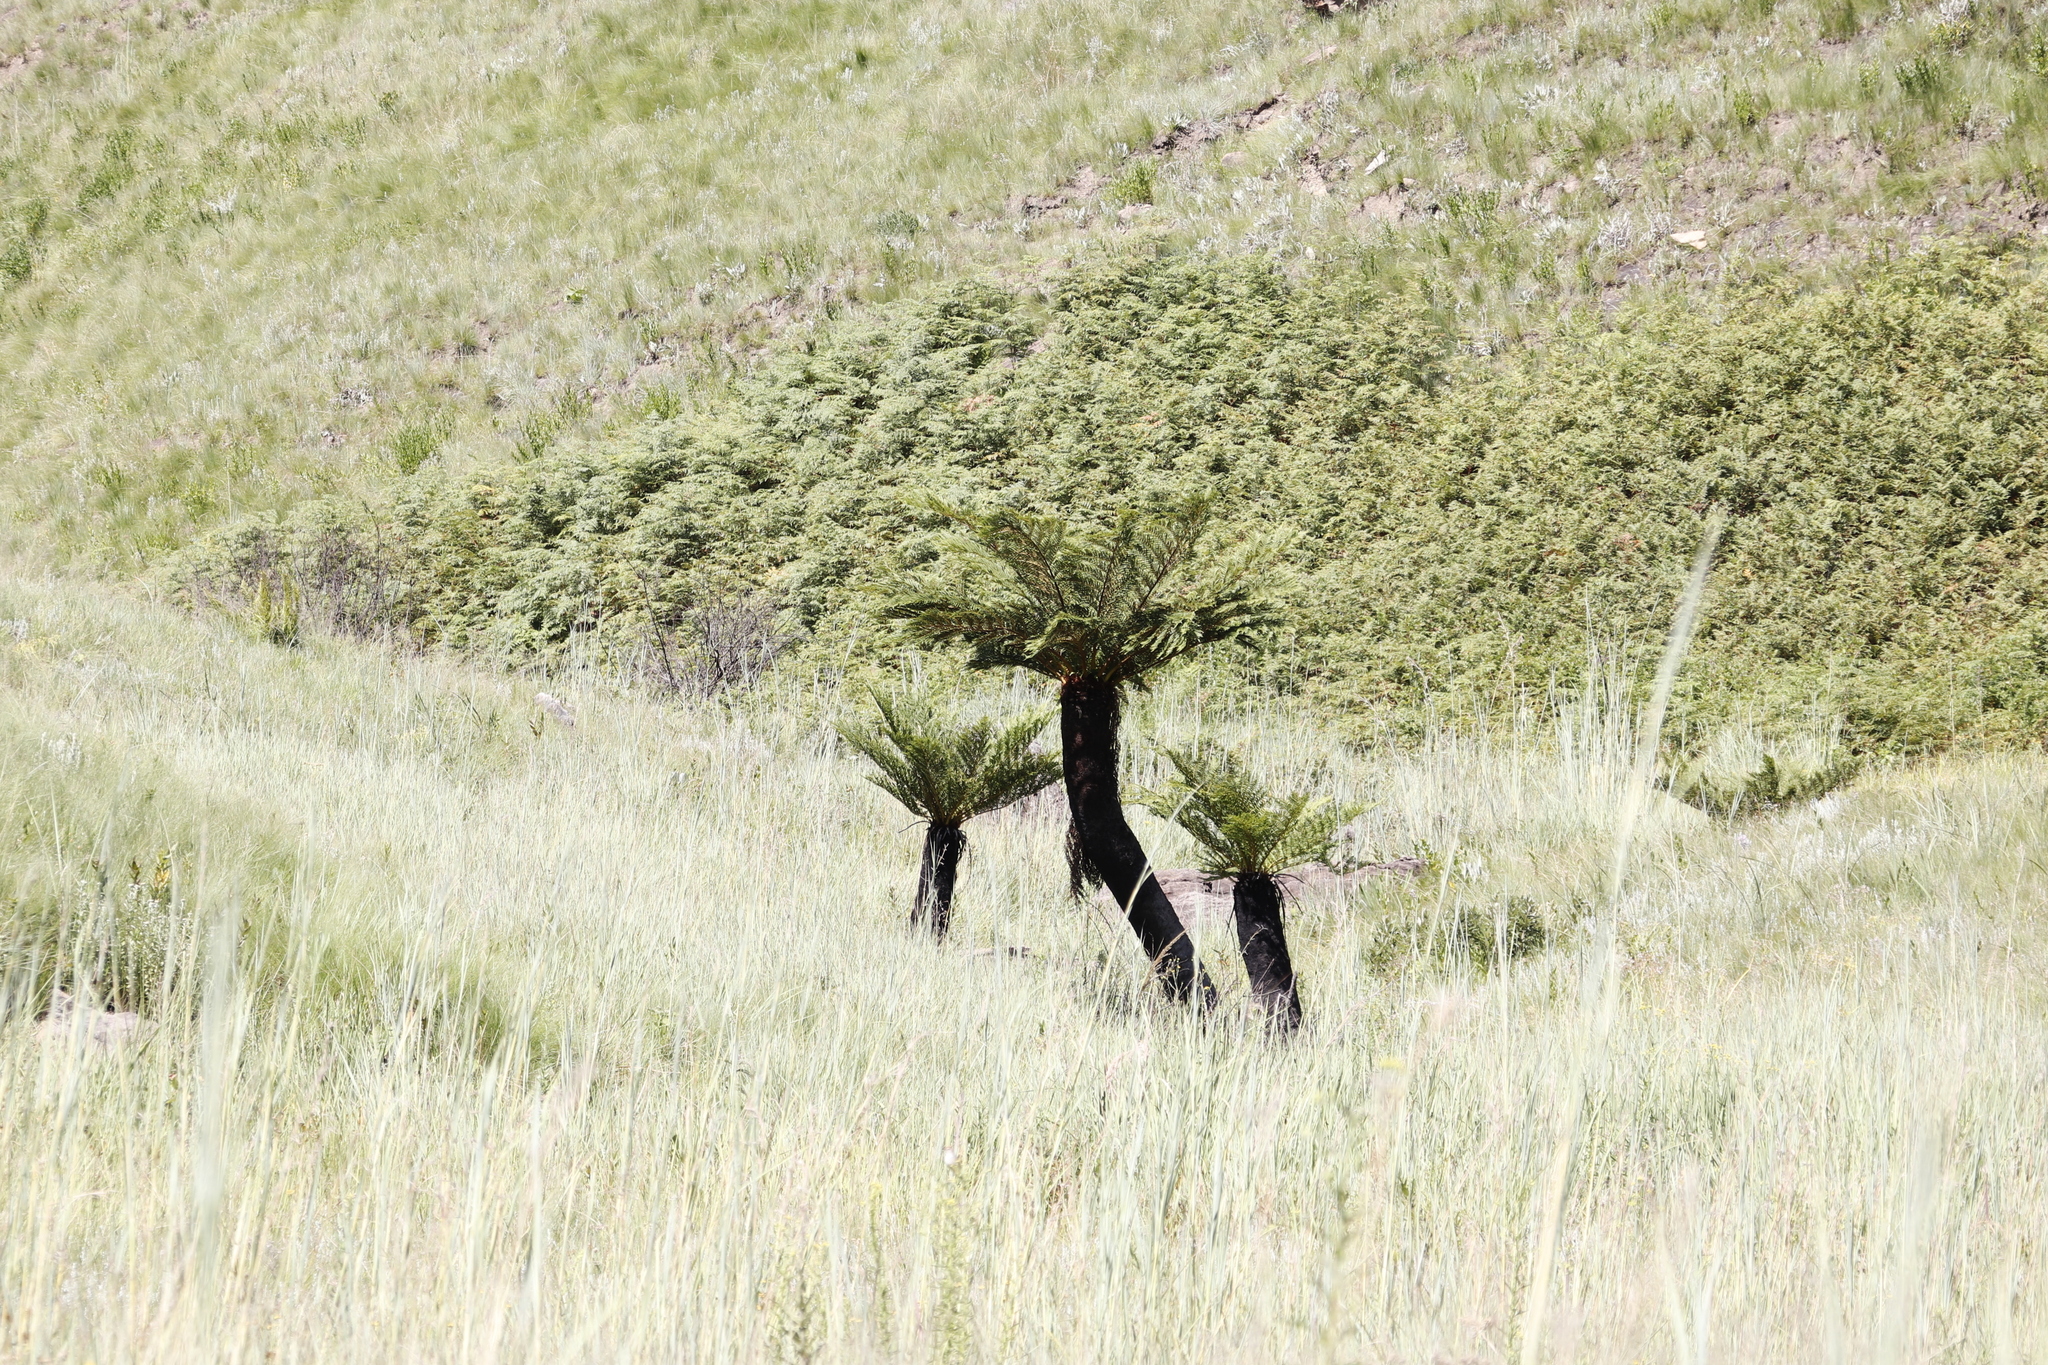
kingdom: Plantae
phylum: Tracheophyta
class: Polypodiopsida
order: Cyatheales
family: Cyatheaceae
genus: Alsophila
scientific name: Alsophila dregei
